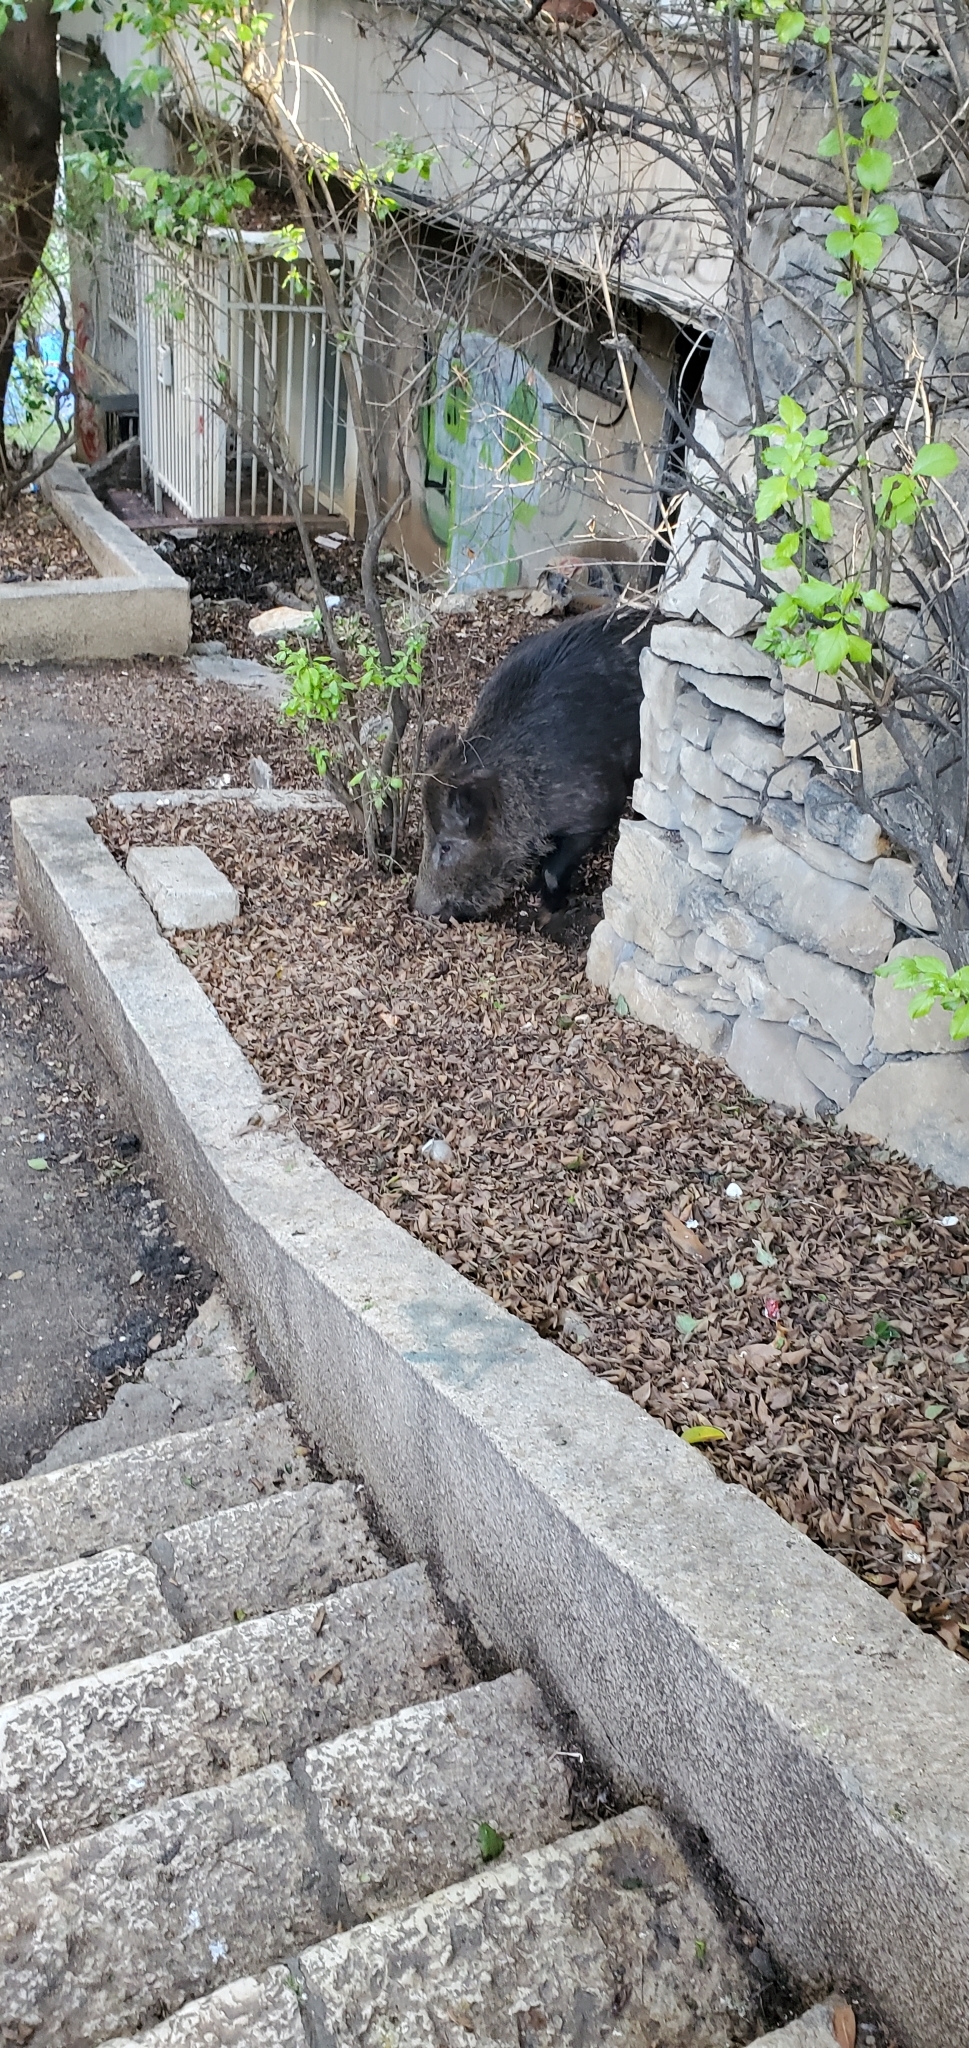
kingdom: Animalia
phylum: Chordata
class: Mammalia
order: Artiodactyla
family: Suidae
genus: Sus
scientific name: Sus scrofa
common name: Wild boar
